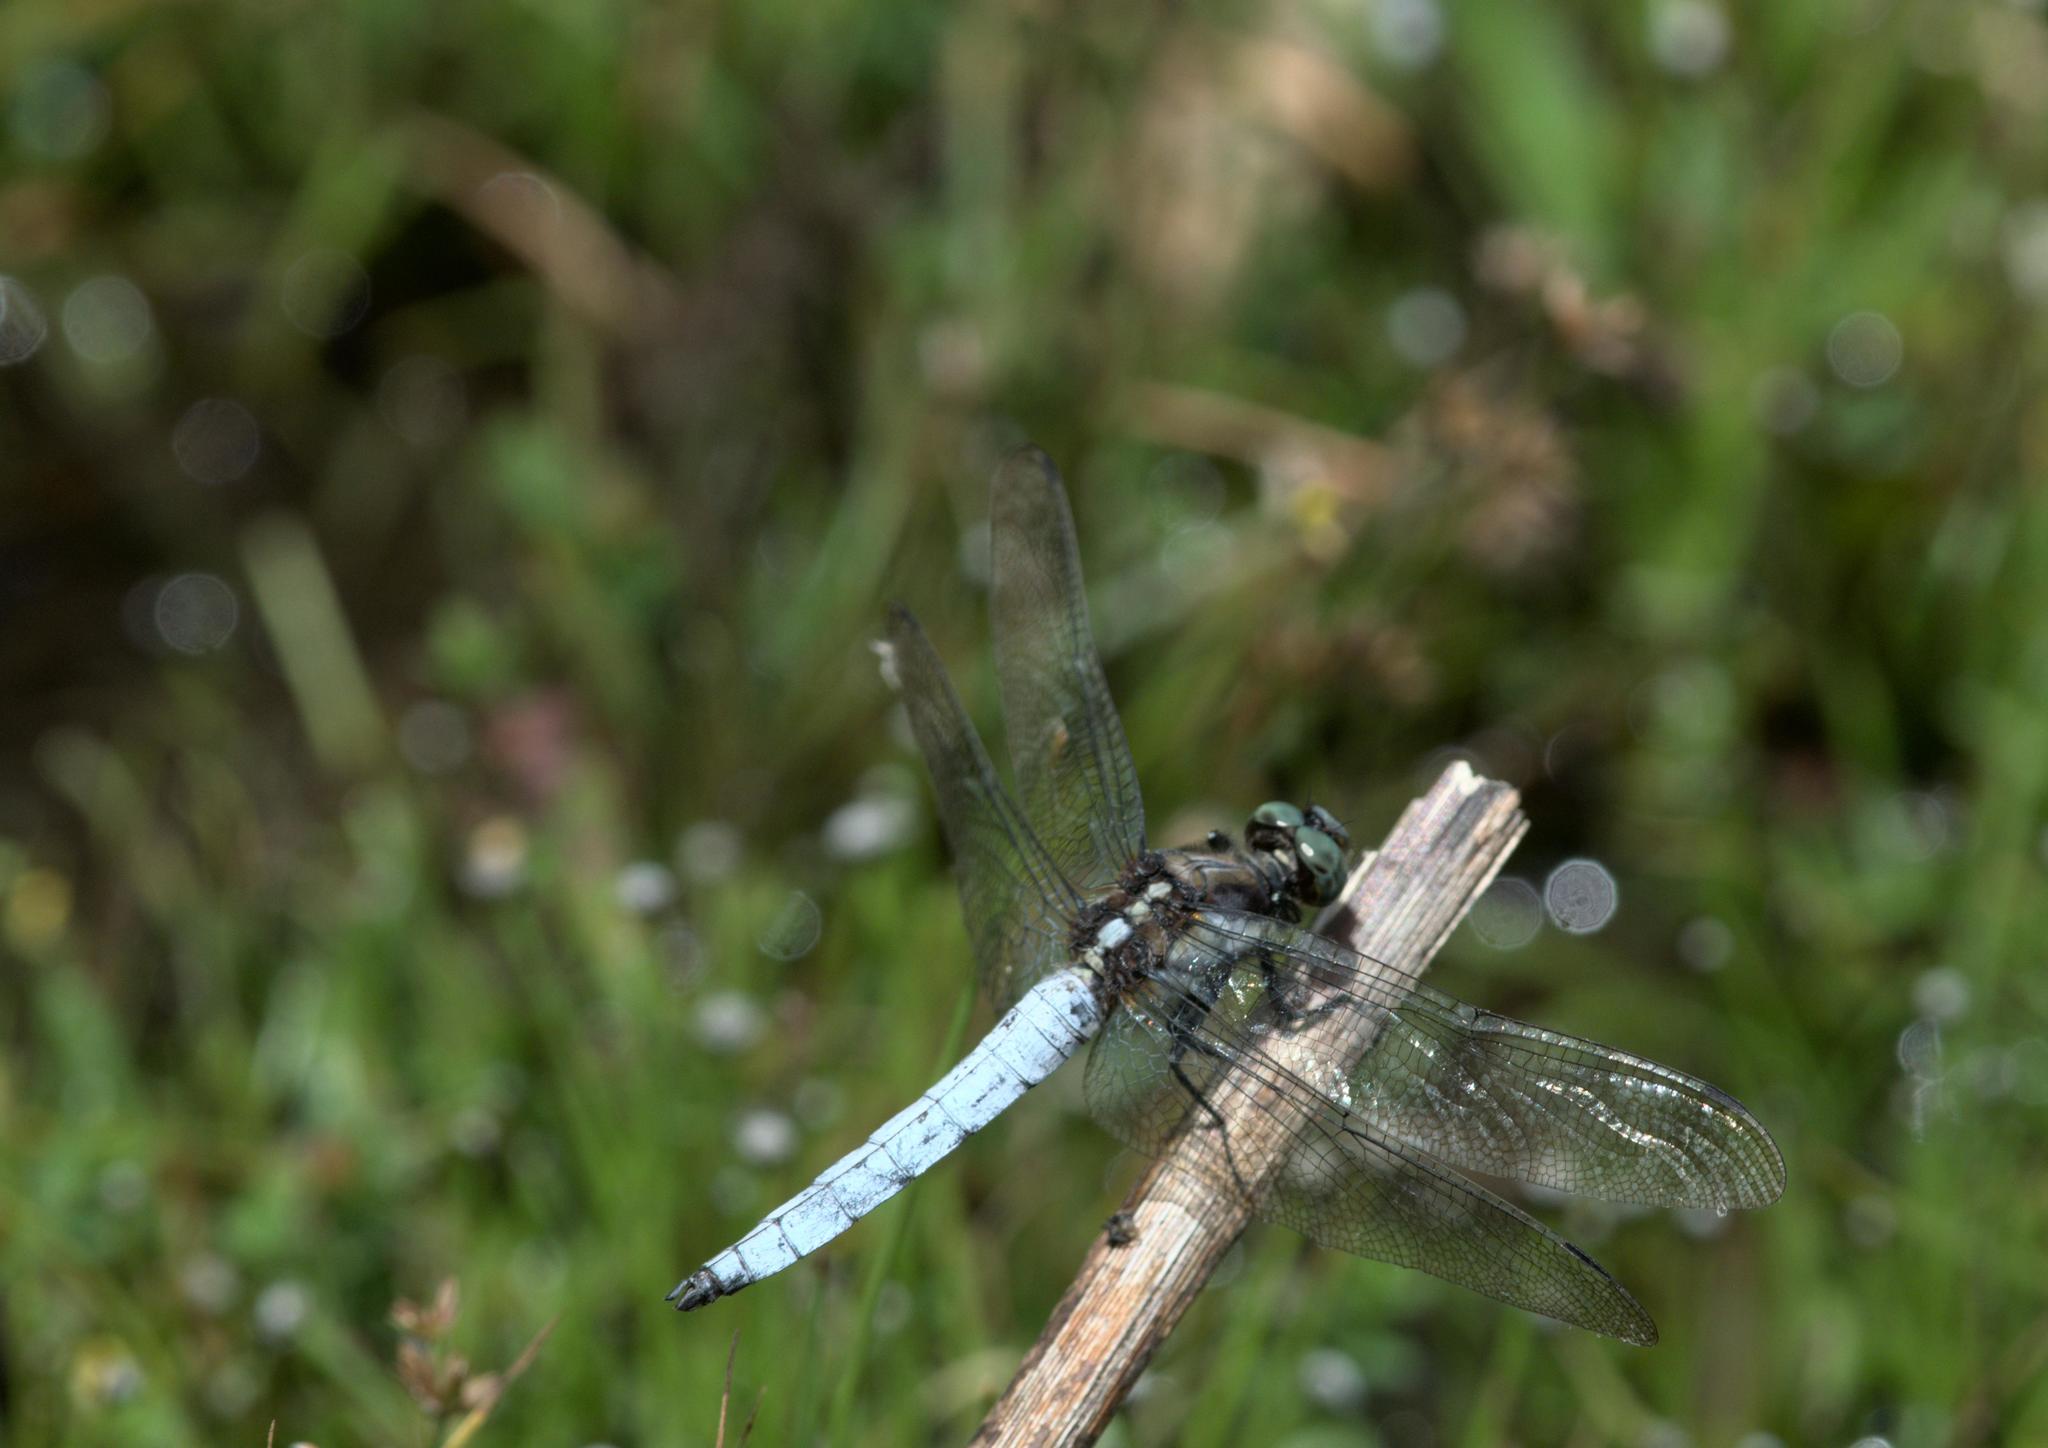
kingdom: Animalia
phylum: Arthropoda
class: Insecta
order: Odonata
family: Libellulidae
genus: Orthetrum
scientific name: Orthetrum internum
